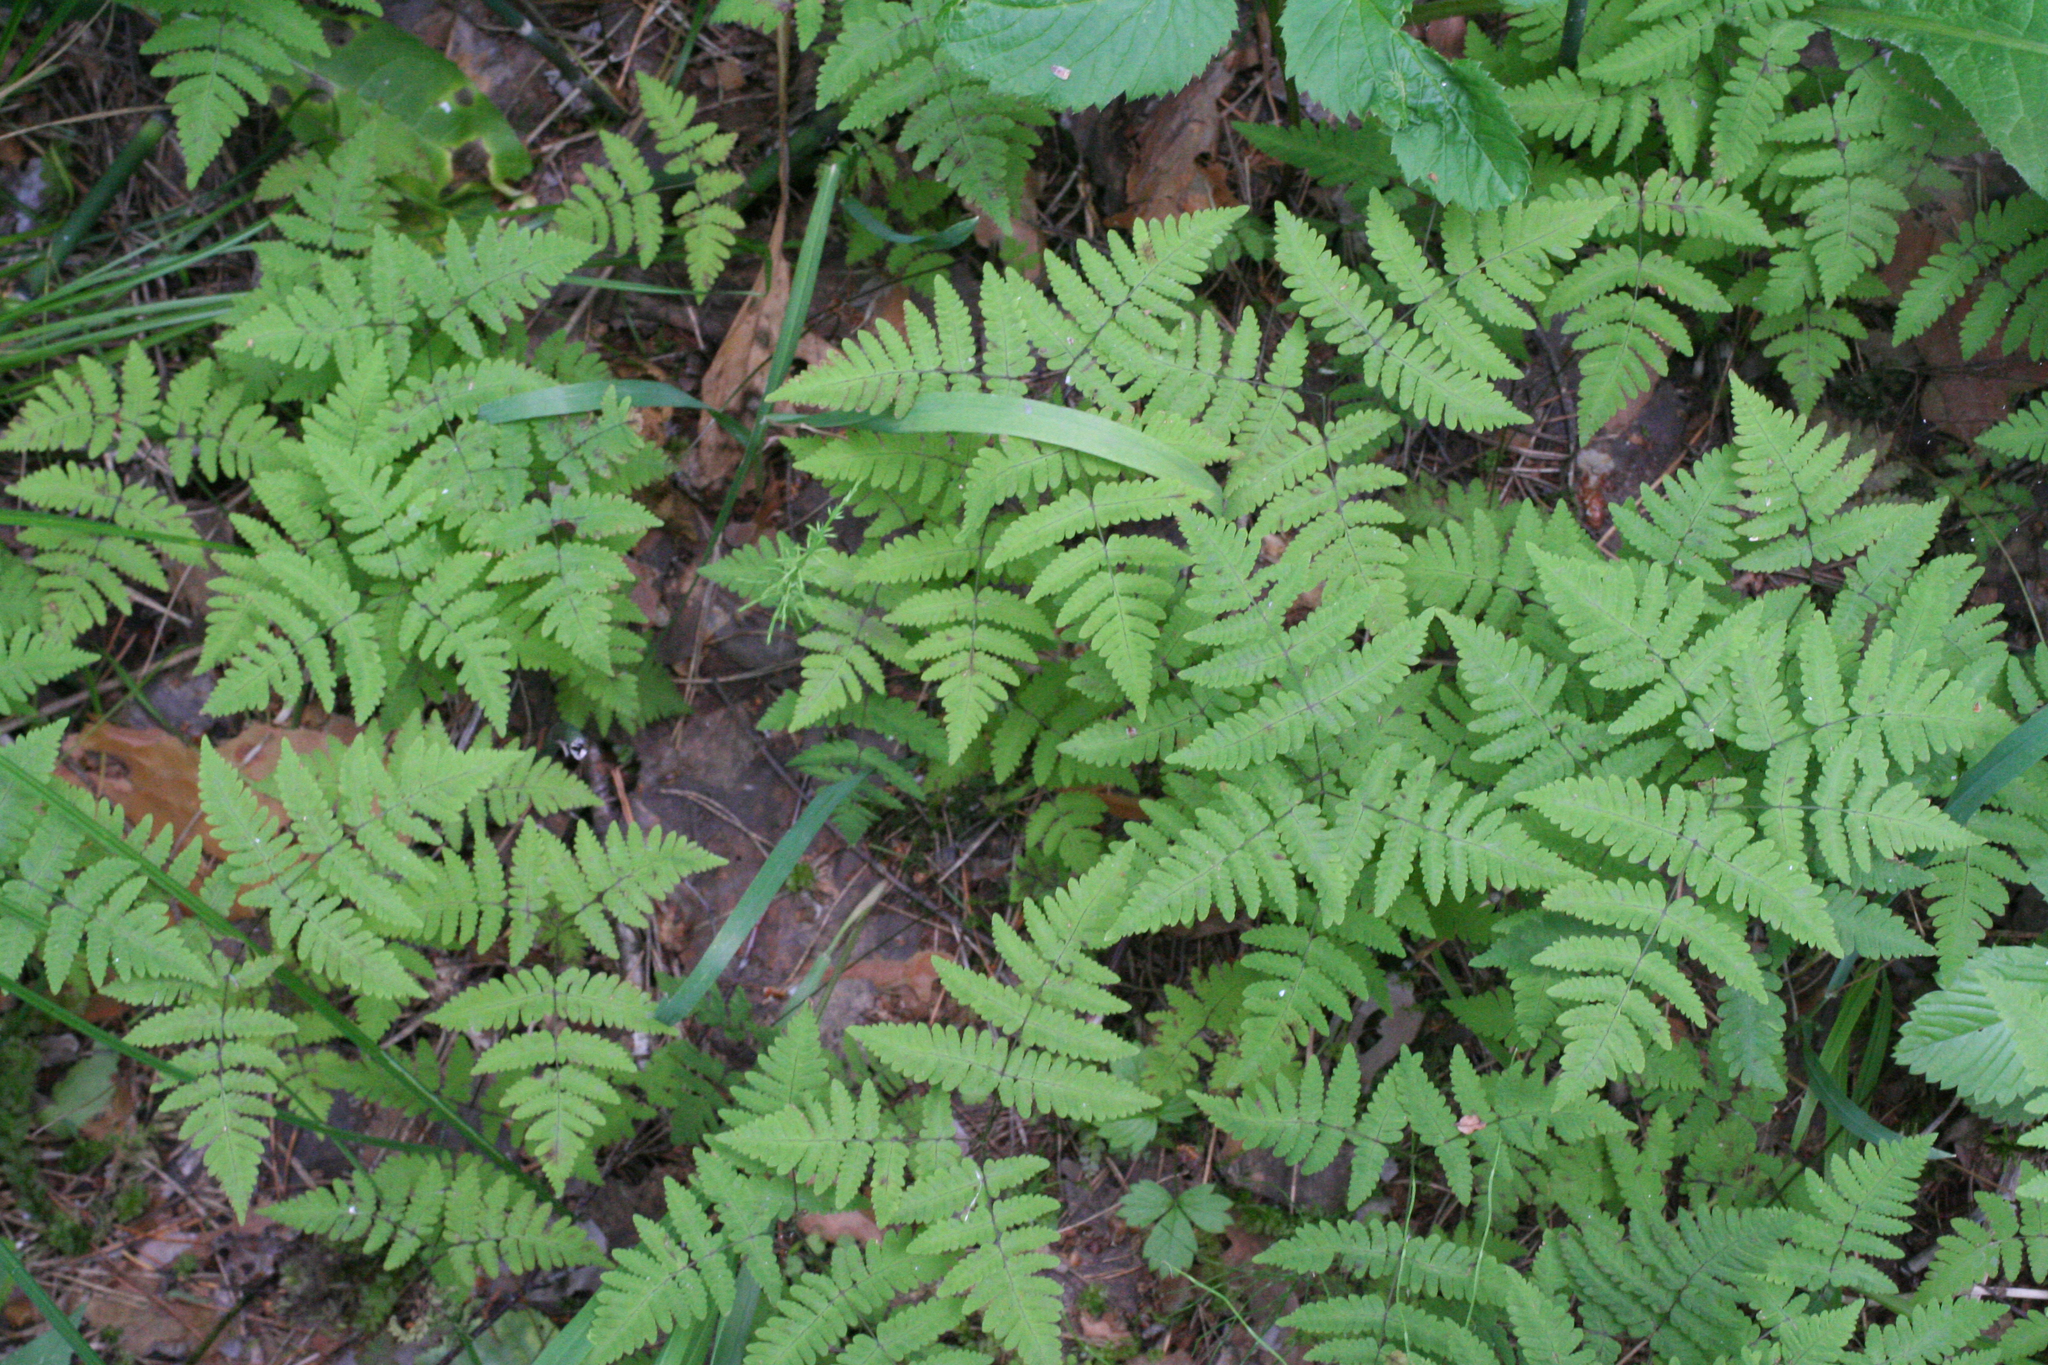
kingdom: Plantae
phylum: Tracheophyta
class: Polypodiopsida
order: Polypodiales
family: Cystopteridaceae
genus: Gymnocarpium
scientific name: Gymnocarpium dryopteris
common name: Oak fern
